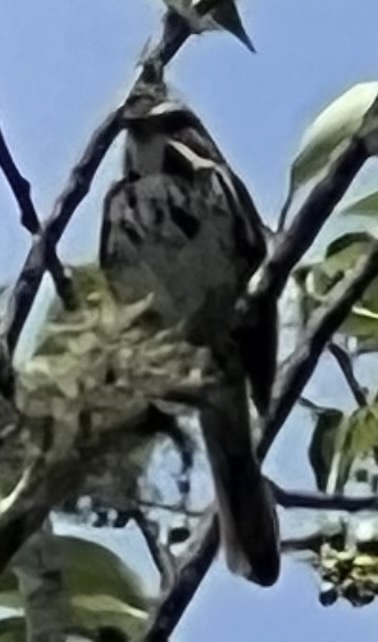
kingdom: Animalia
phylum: Chordata
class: Aves
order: Passeriformes
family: Passerellidae
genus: Melospiza
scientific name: Melospiza melodia
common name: Song sparrow
